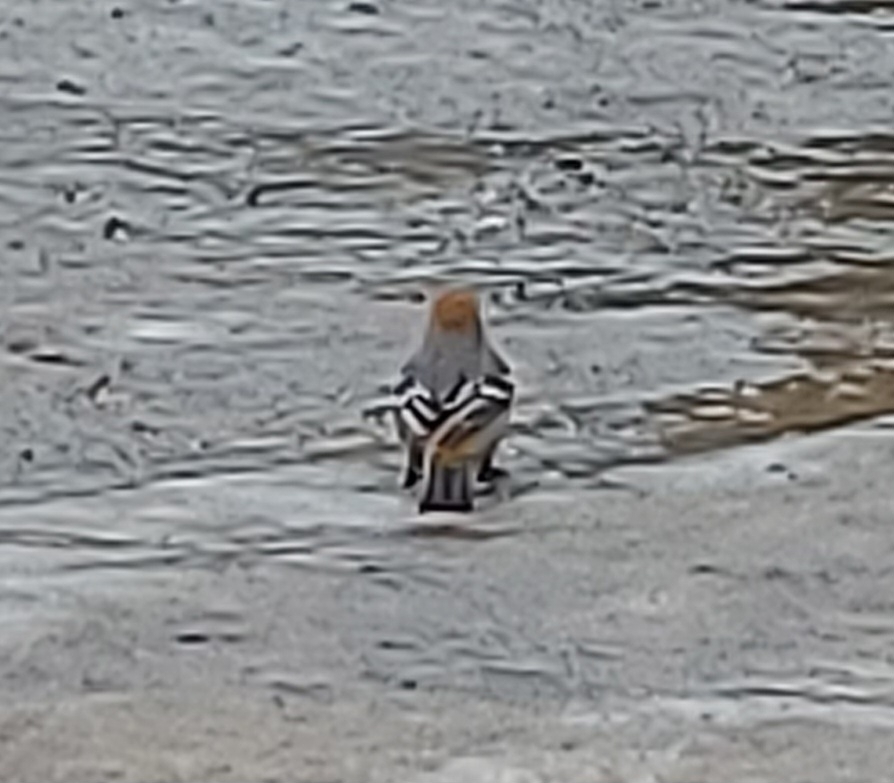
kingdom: Animalia
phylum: Chordata
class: Aves
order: Passeriformes
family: Fringillidae
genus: Pinicola
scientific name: Pinicola enucleator
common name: Pine grosbeak
